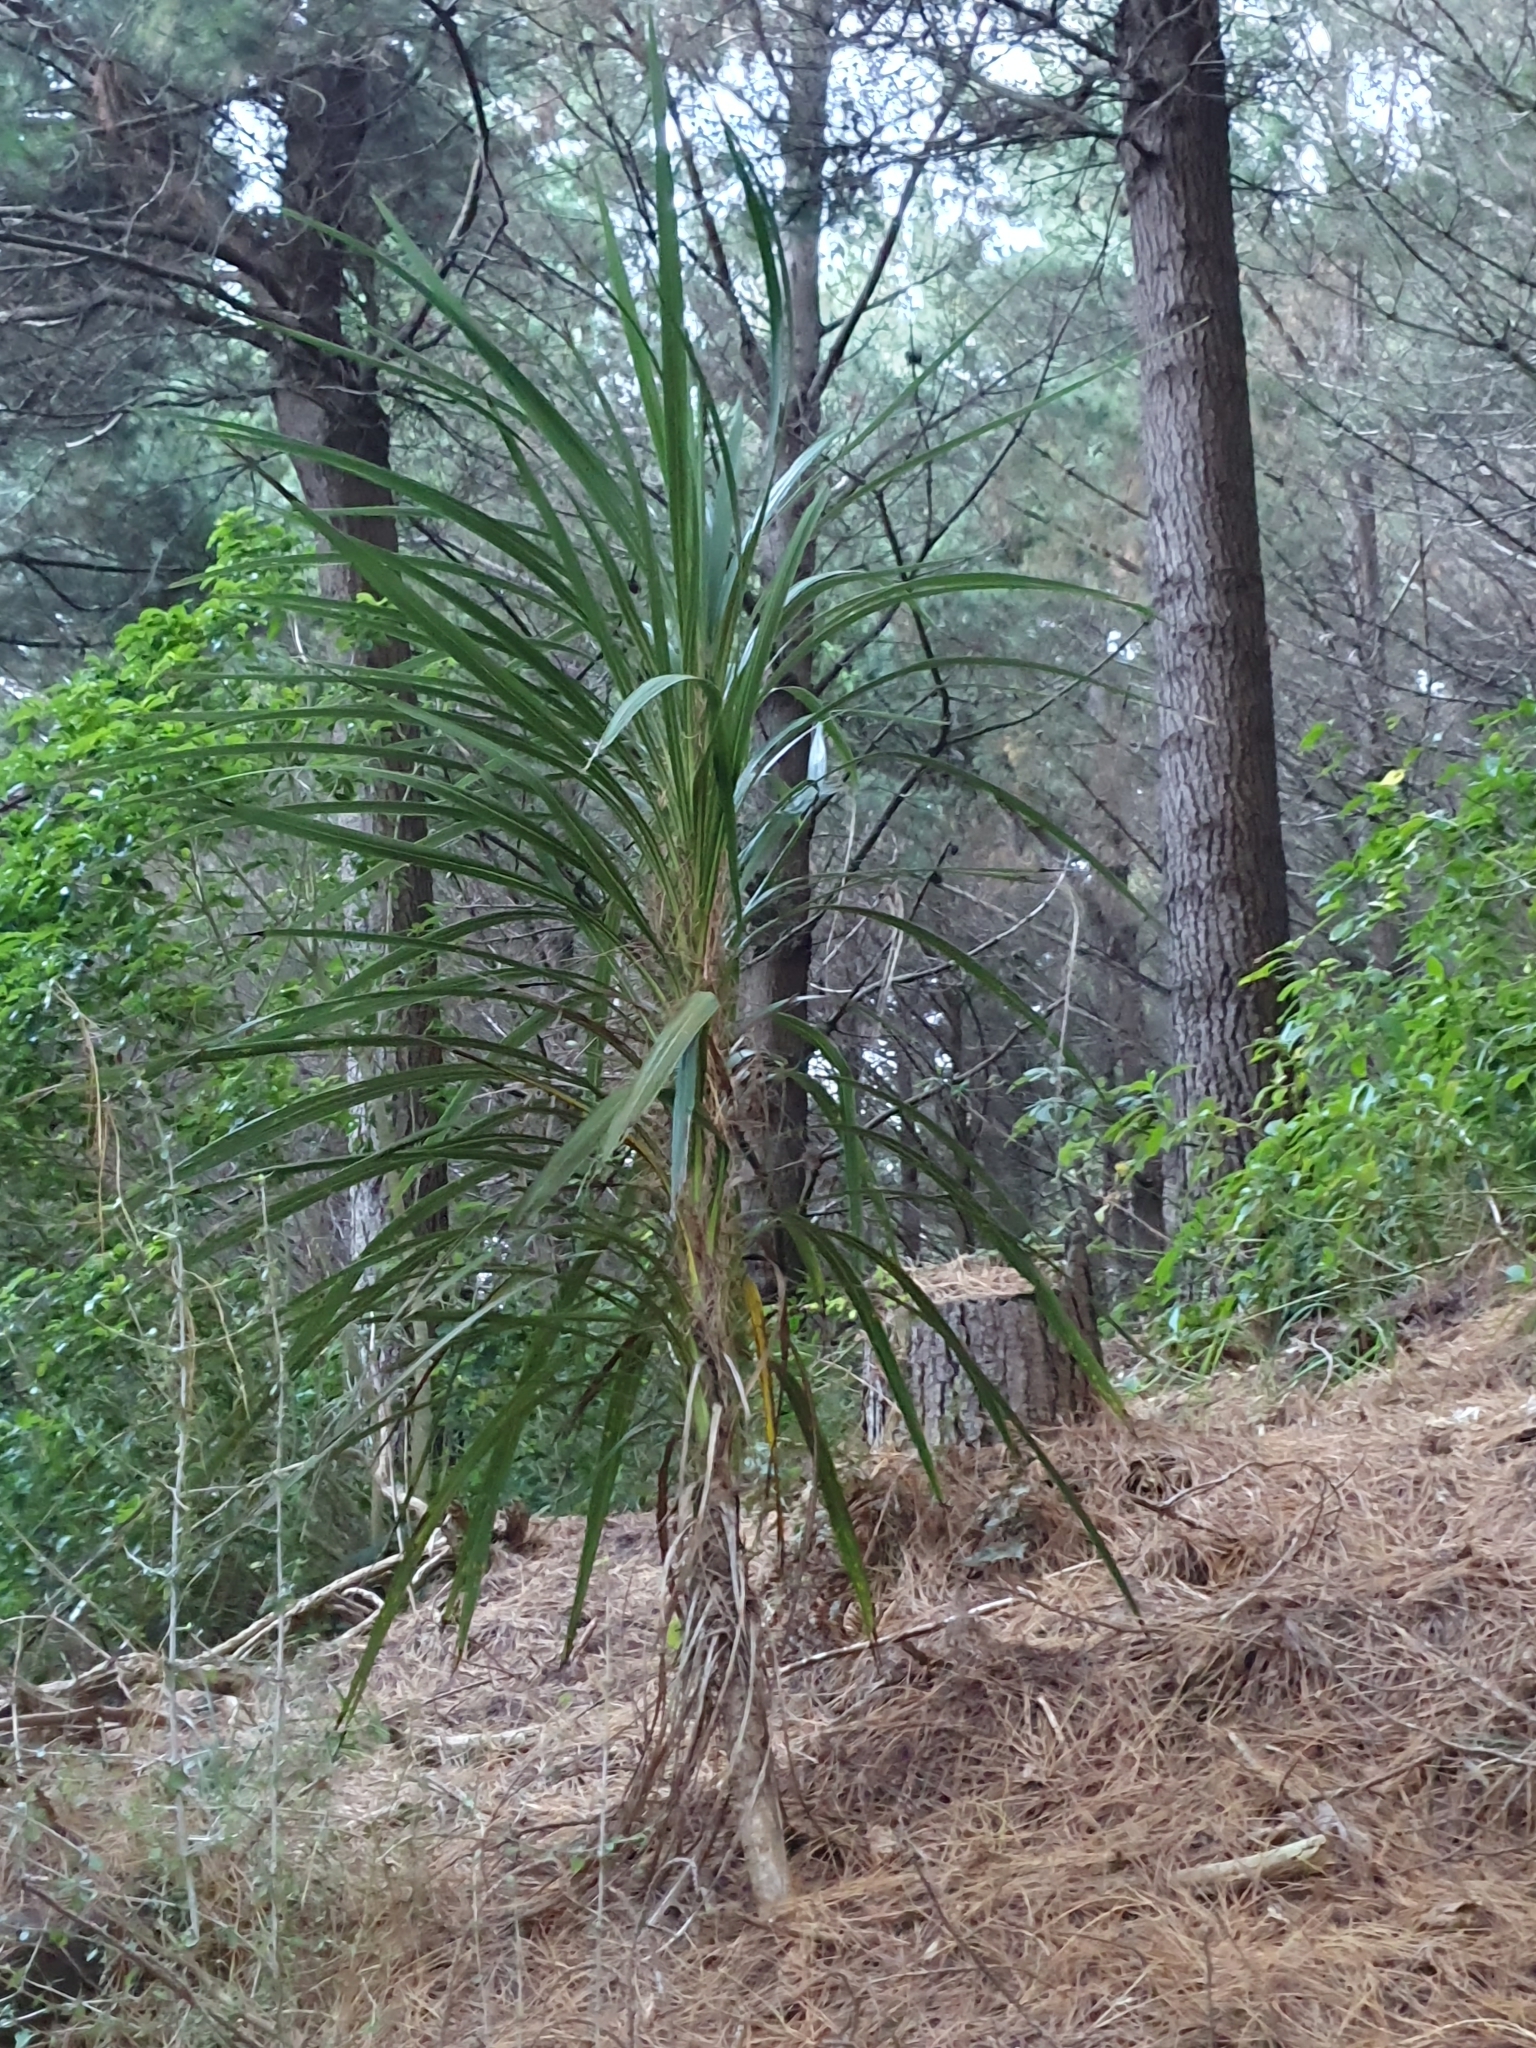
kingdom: Plantae
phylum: Tracheophyta
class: Liliopsida
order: Asparagales
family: Asparagaceae
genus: Cordyline
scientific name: Cordyline australis
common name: Cabbage-palm
